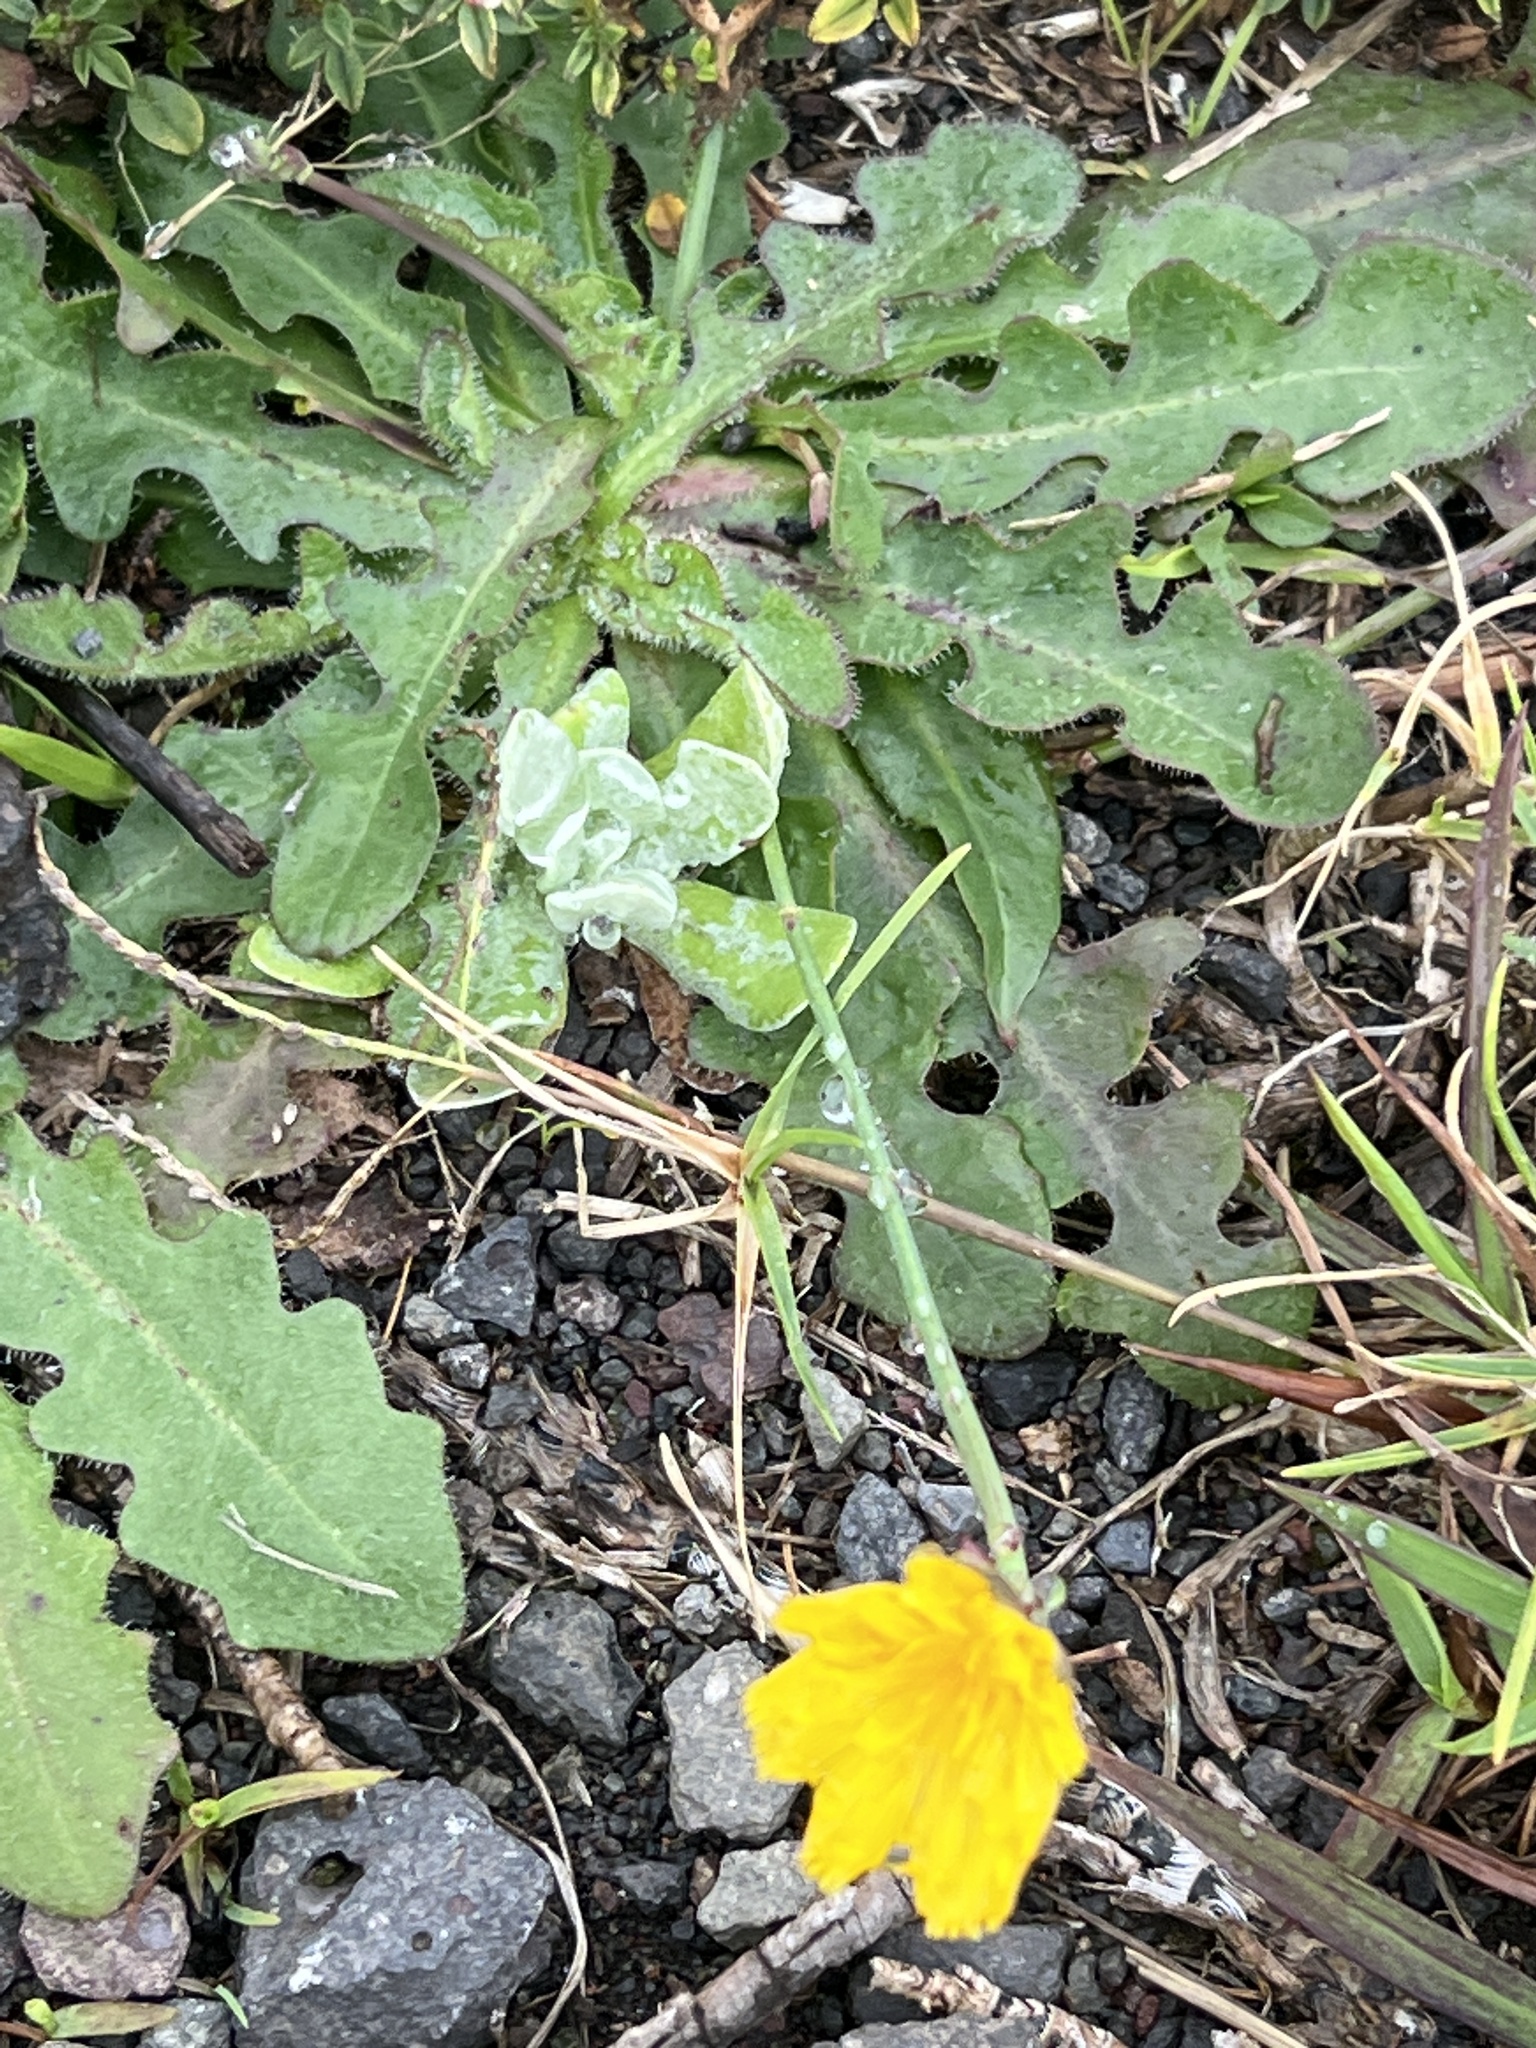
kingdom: Plantae
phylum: Tracheophyta
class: Magnoliopsida
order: Asterales
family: Asteraceae
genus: Hypochaeris
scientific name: Hypochaeris radicata
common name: Flatweed
